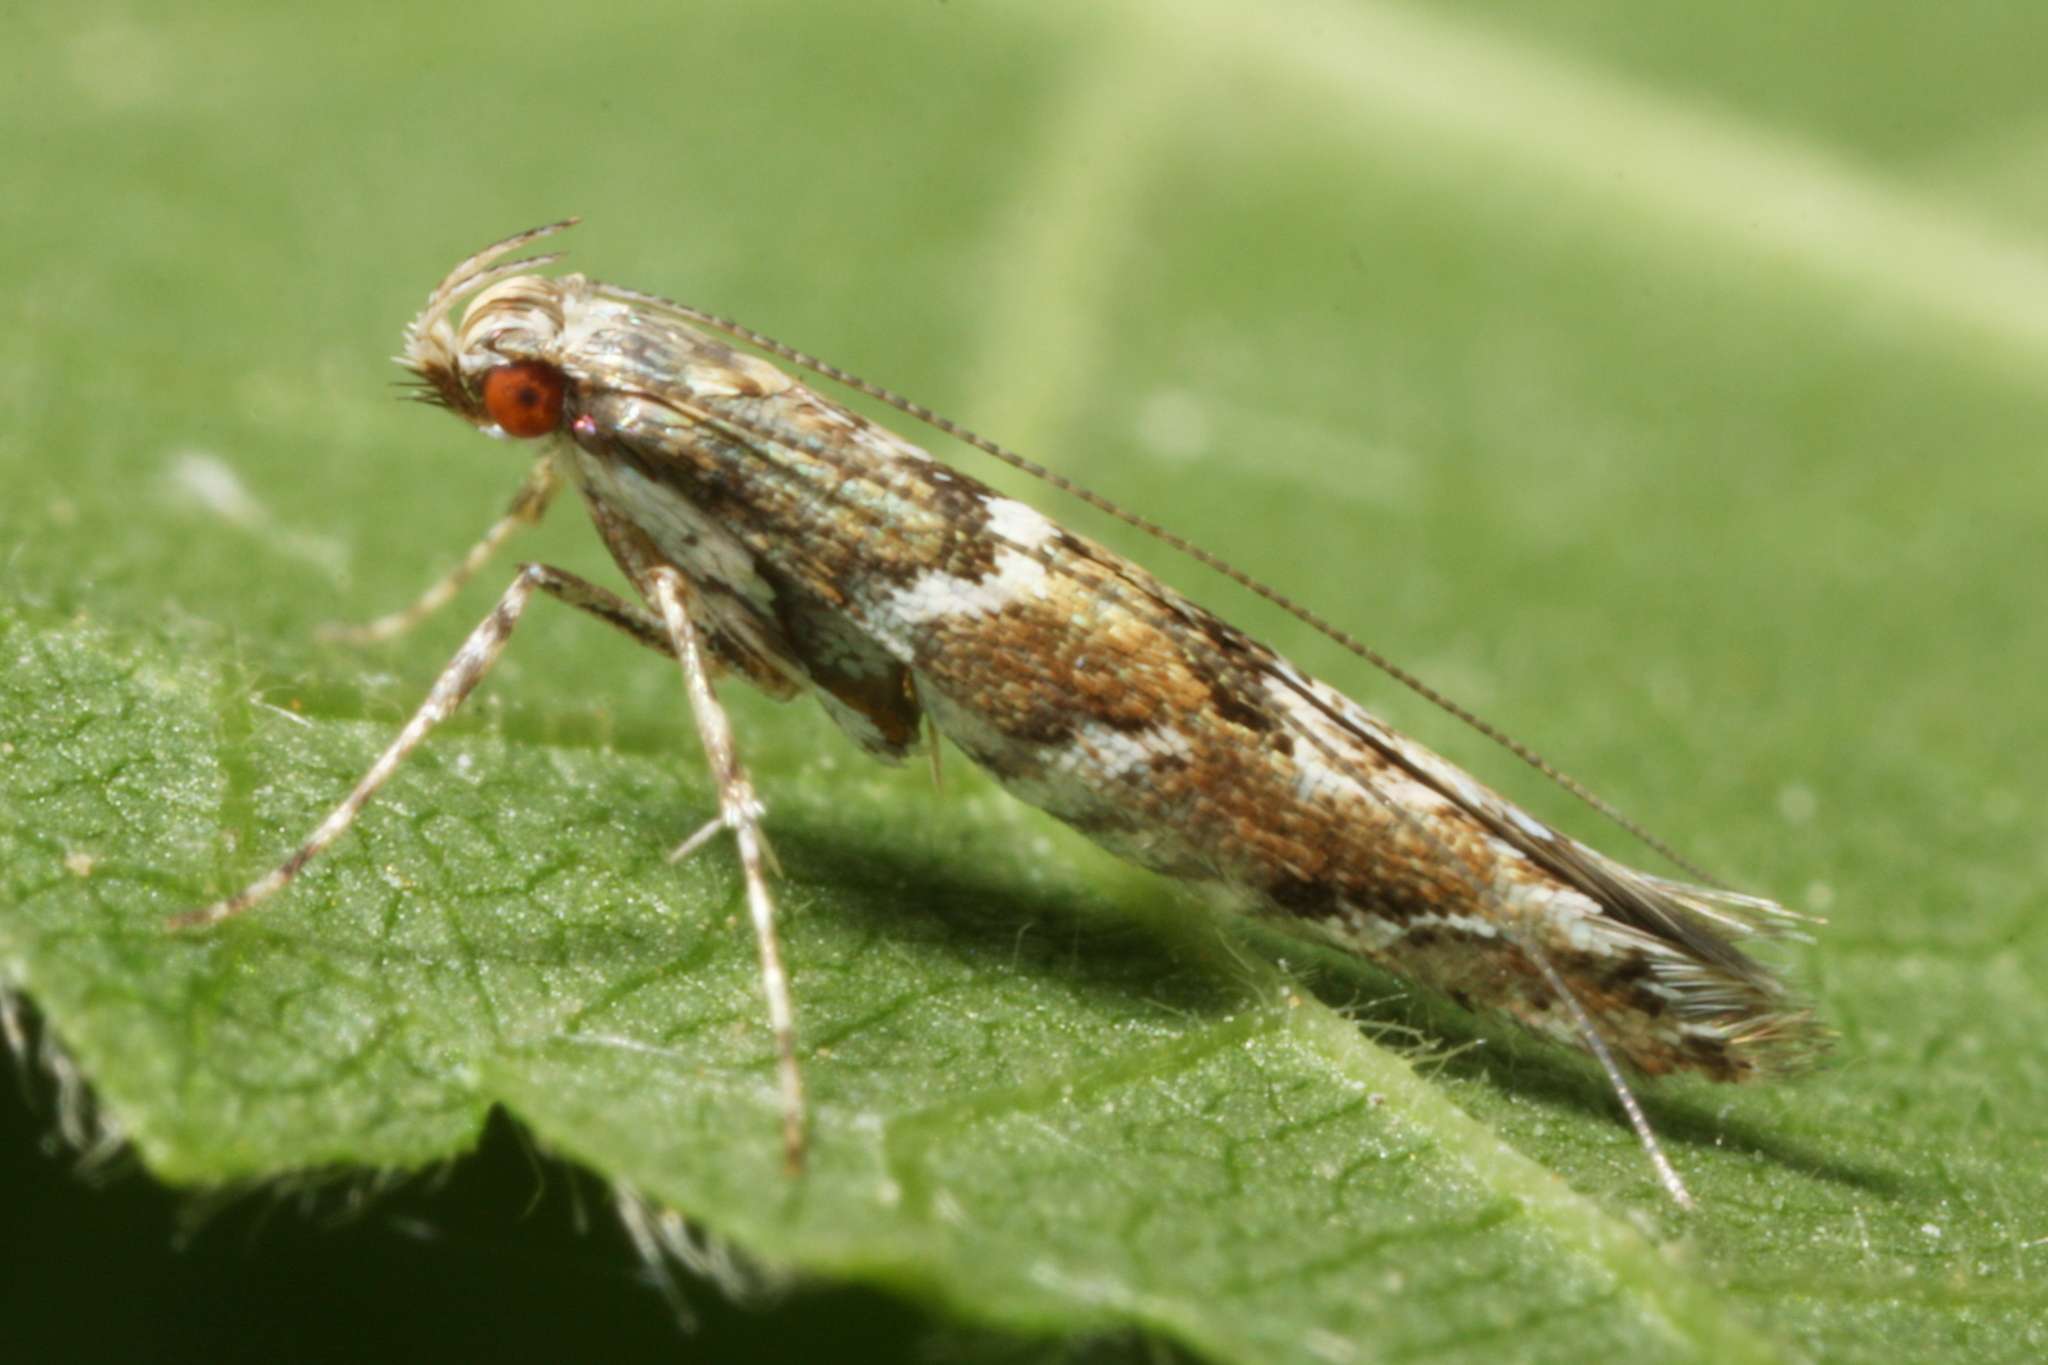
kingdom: Animalia
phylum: Arthropoda
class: Insecta
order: Lepidoptera
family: Gracillariidae
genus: Acrocercops
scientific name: Acrocercops brongniardella
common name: Brown oak slender
